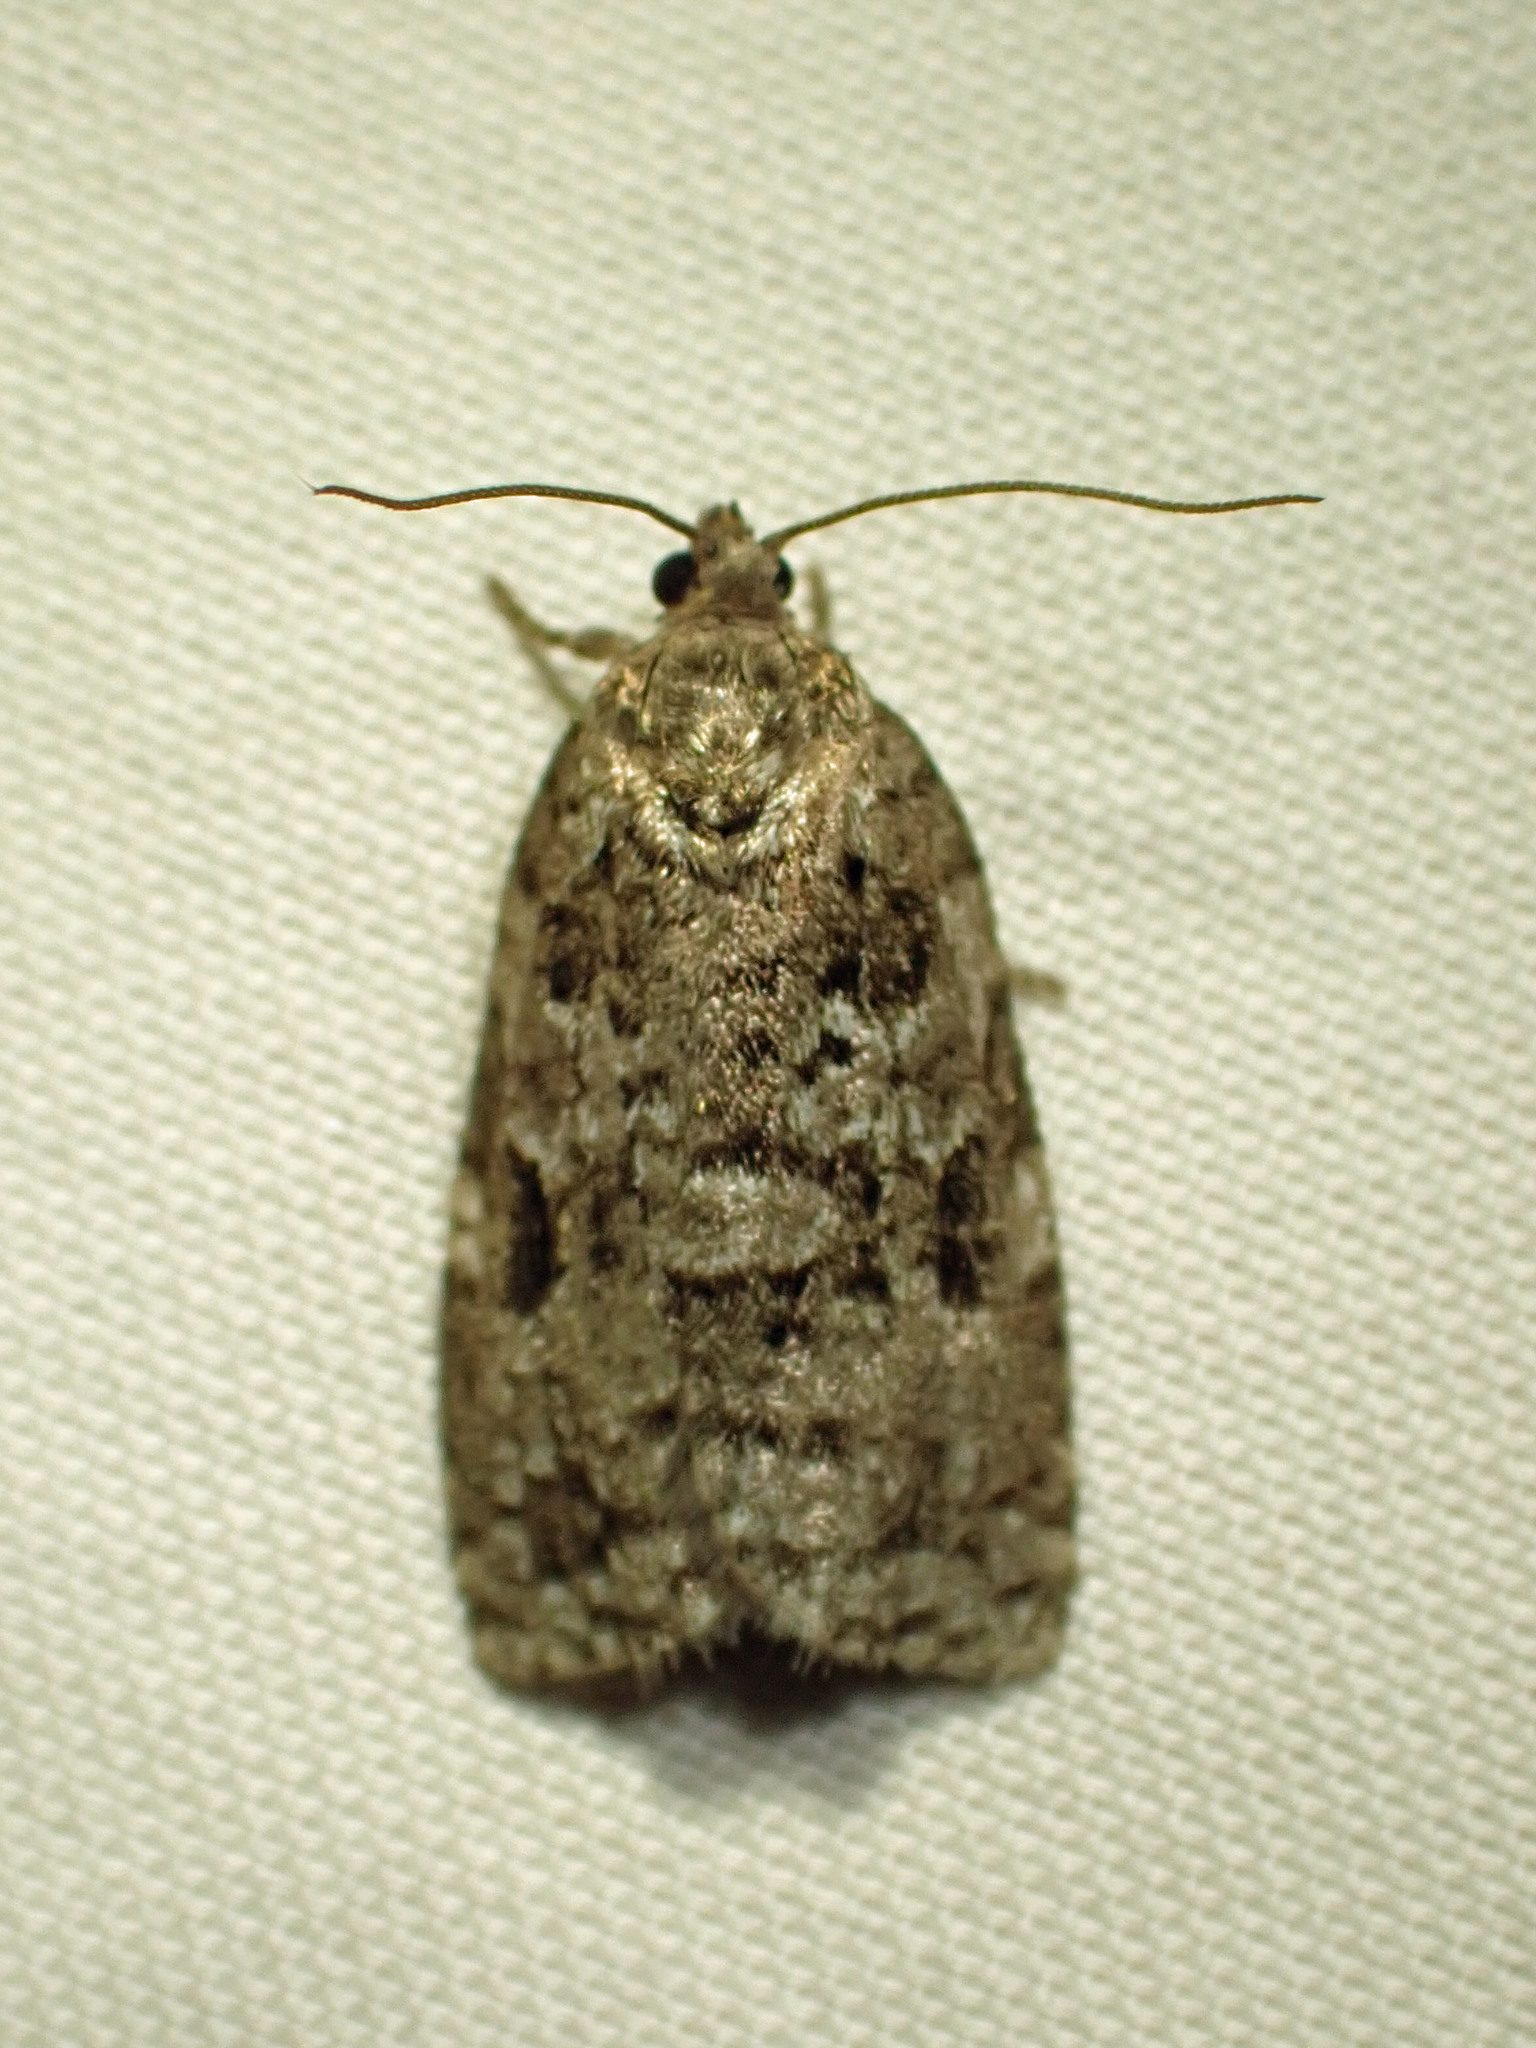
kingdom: Animalia
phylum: Arthropoda
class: Insecta
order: Lepidoptera
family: Tortricidae
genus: Choristoneura
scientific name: Choristoneura fumiferana
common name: Spruce budworm
